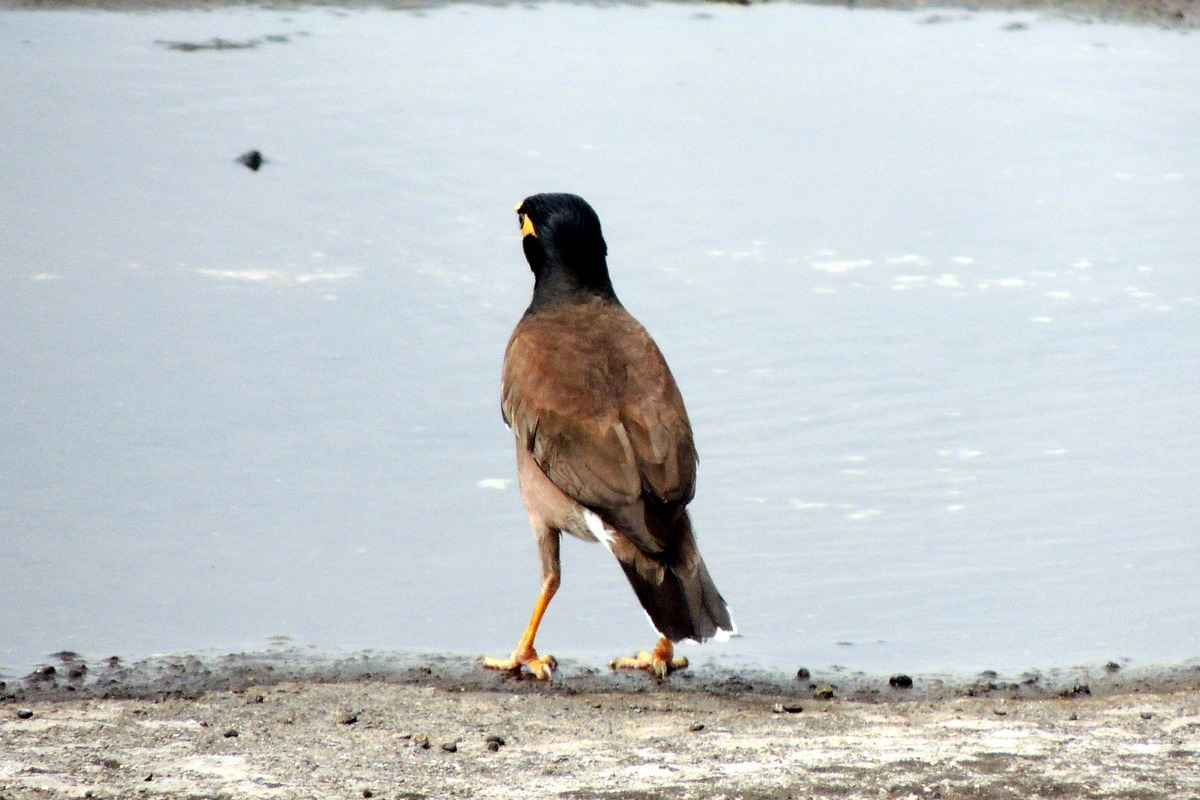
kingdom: Animalia
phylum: Chordata
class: Aves
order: Passeriformes
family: Sturnidae
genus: Acridotheres
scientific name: Acridotheres tristis
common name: Common myna
